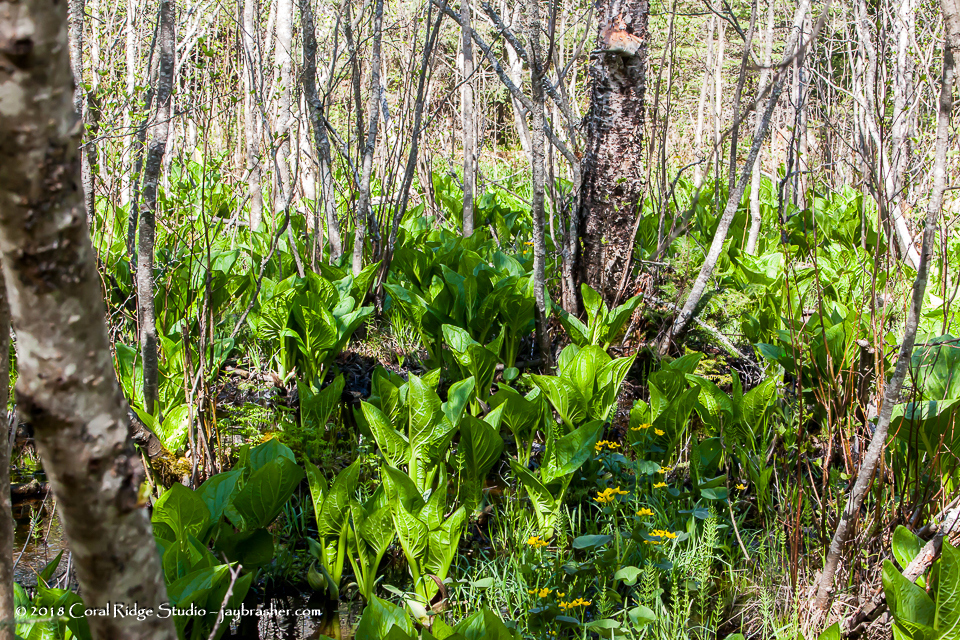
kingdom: Plantae
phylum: Tracheophyta
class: Liliopsida
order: Alismatales
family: Araceae
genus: Symplocarpus
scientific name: Symplocarpus foetidus
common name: Eastern skunk cabbage
